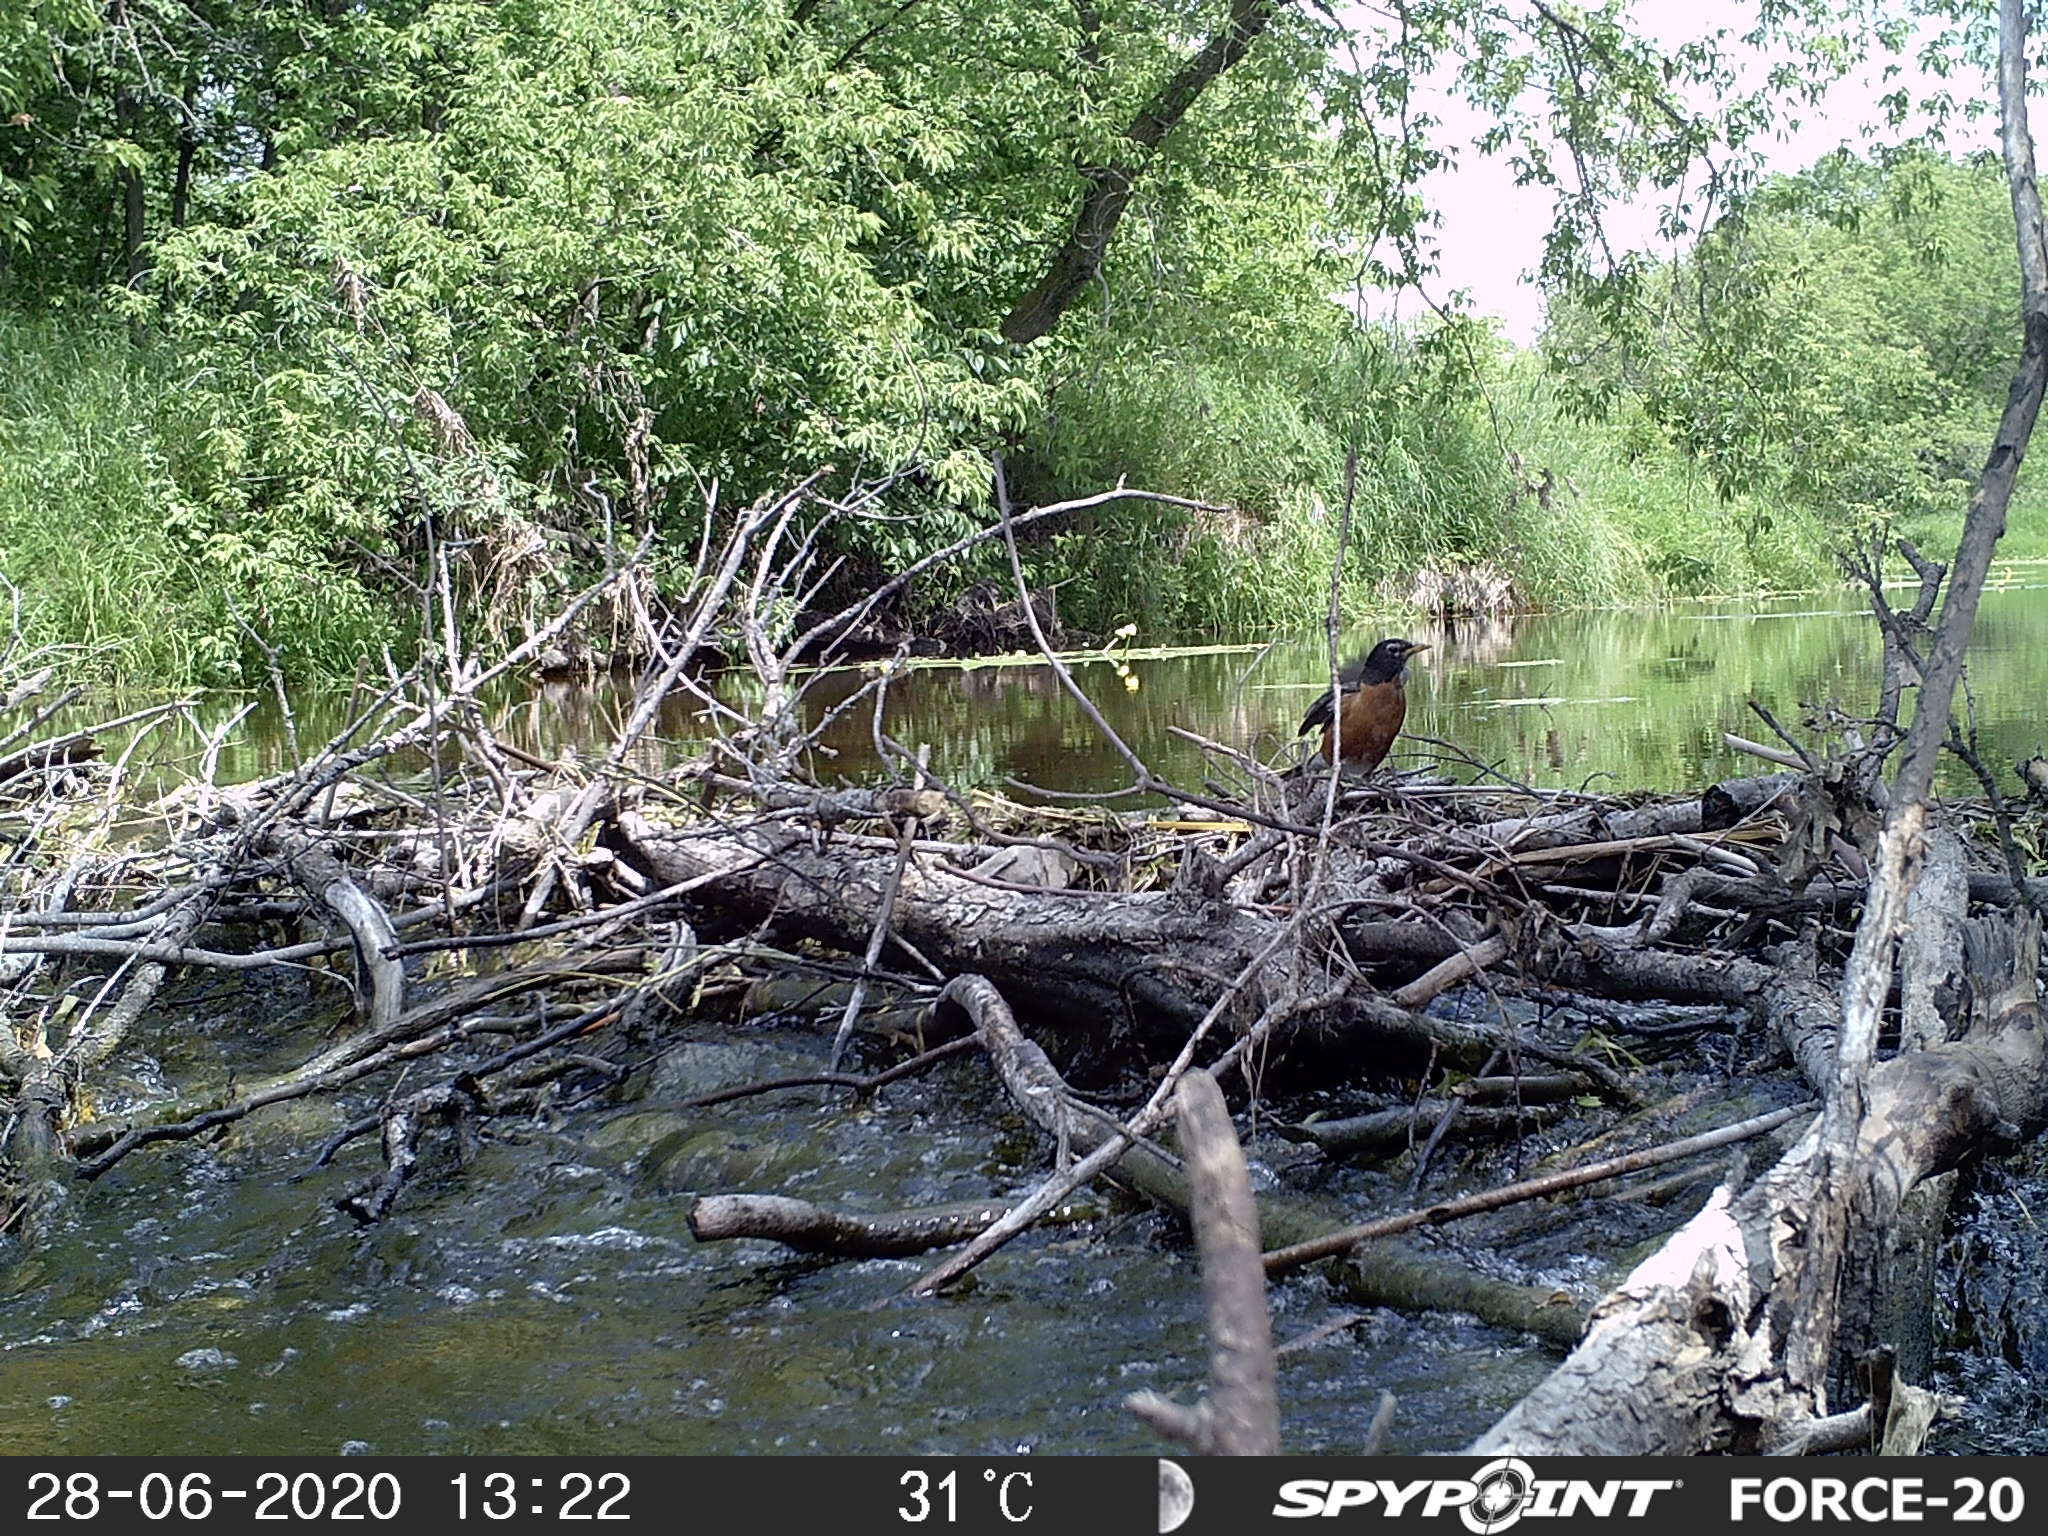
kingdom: Animalia
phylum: Chordata
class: Aves
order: Passeriformes
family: Turdidae
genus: Turdus
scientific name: Turdus migratorius
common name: American robin
